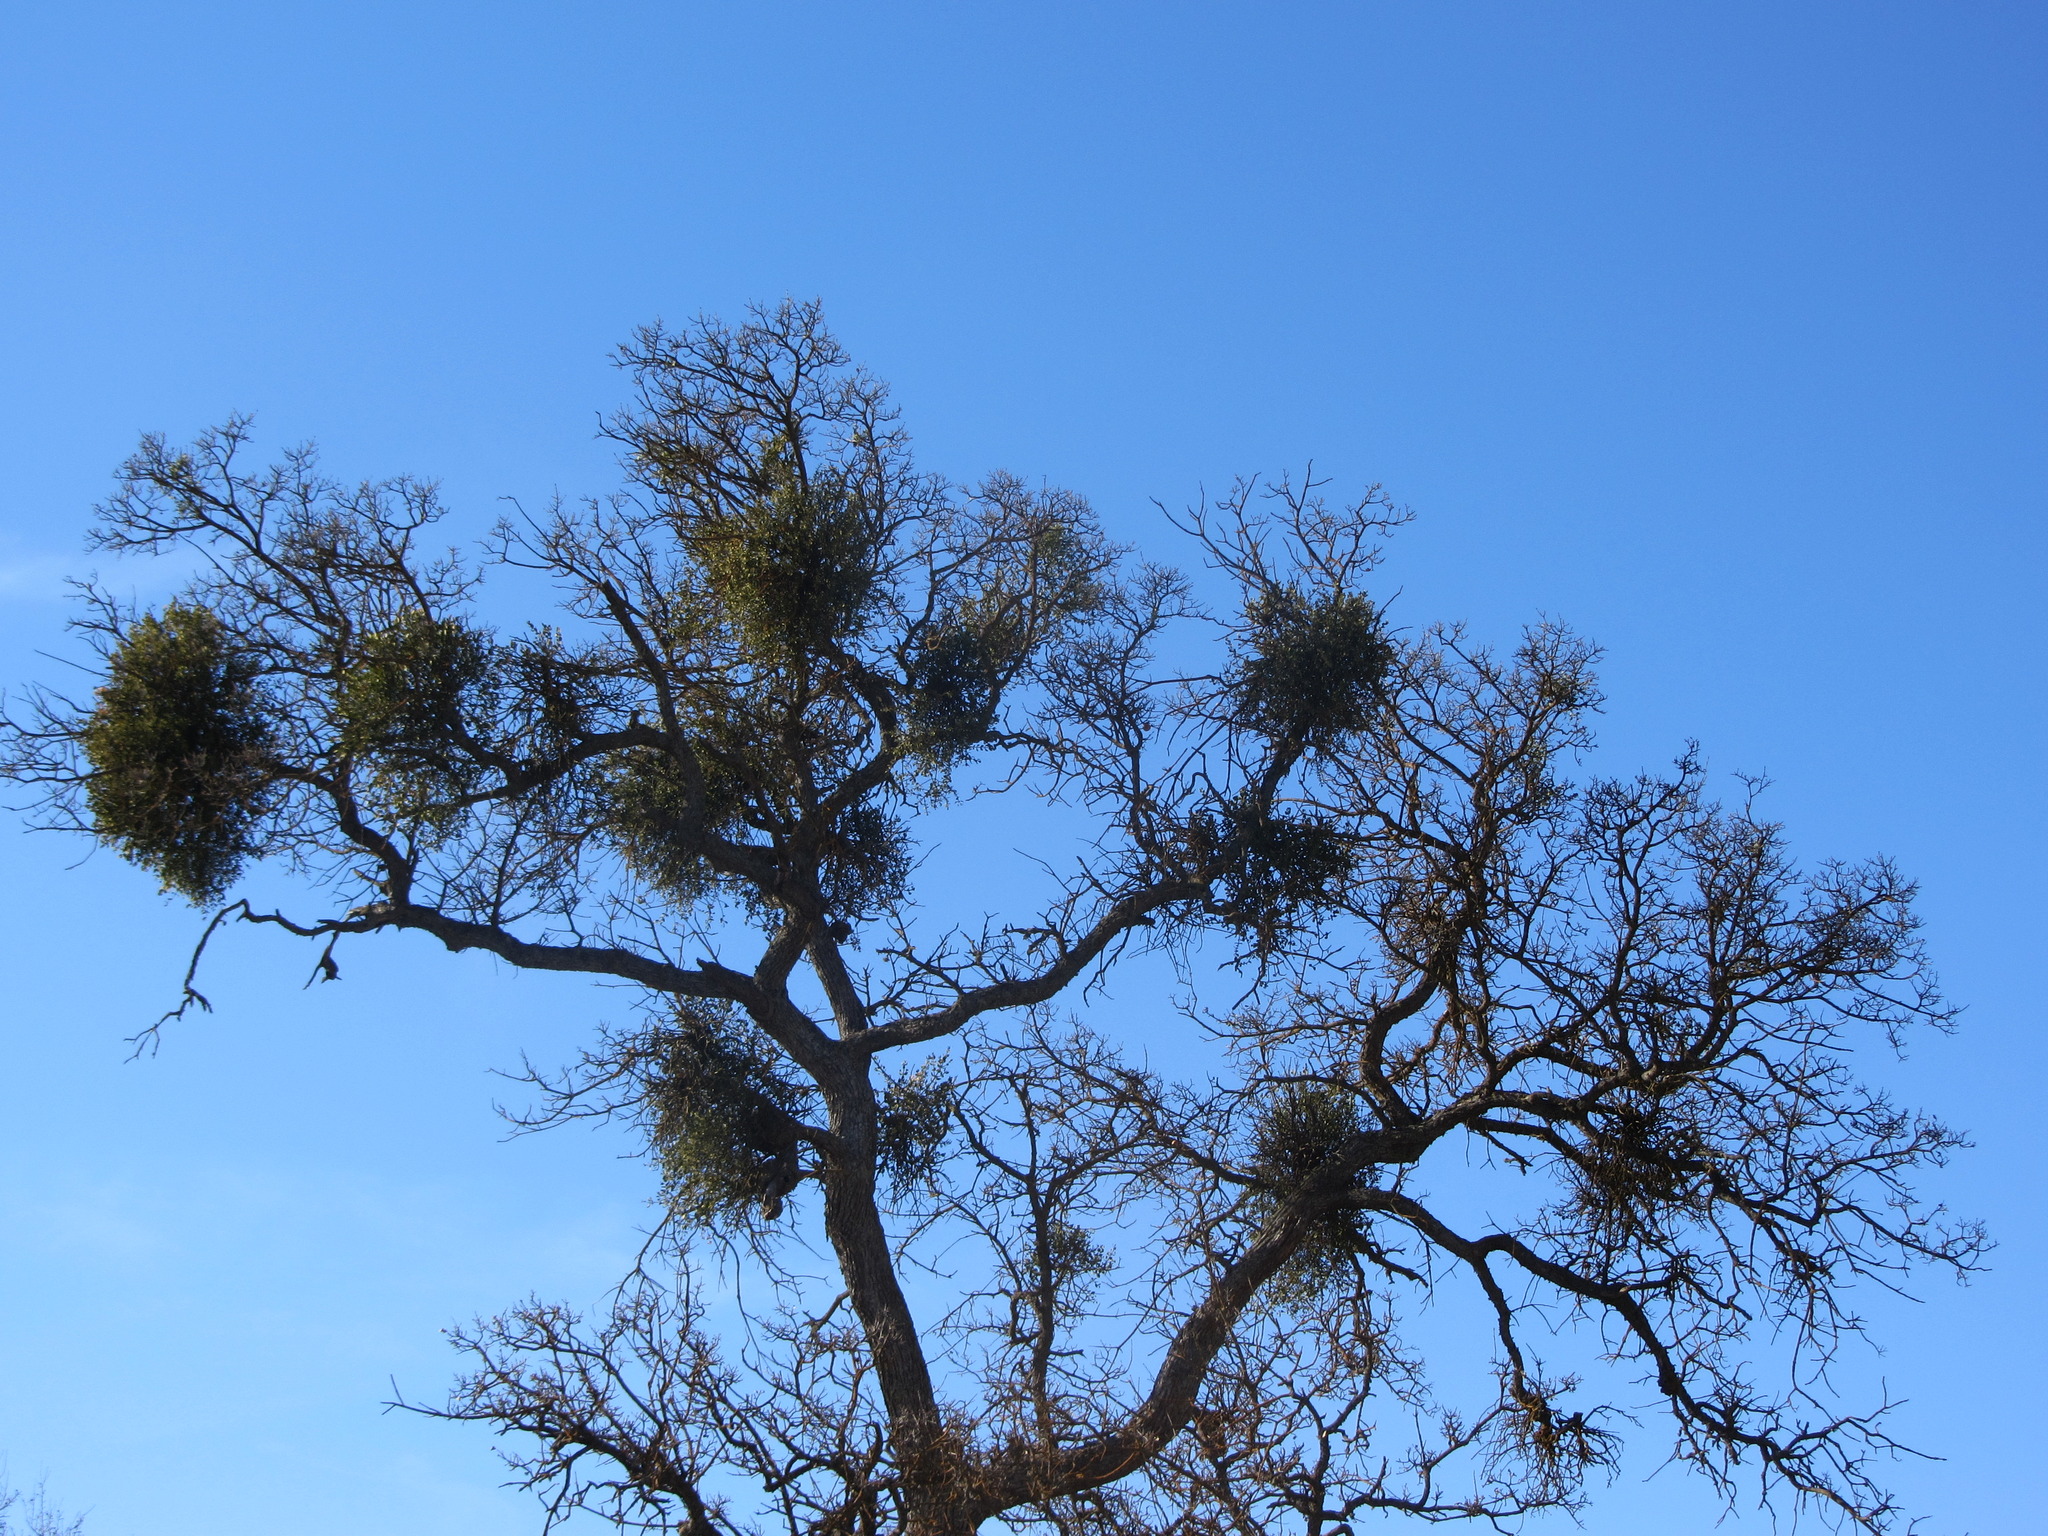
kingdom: Plantae
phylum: Tracheophyta
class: Magnoliopsida
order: Santalales
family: Viscaceae
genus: Phoradendron
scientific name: Phoradendron leucarpum
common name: Pacific mistletoe
